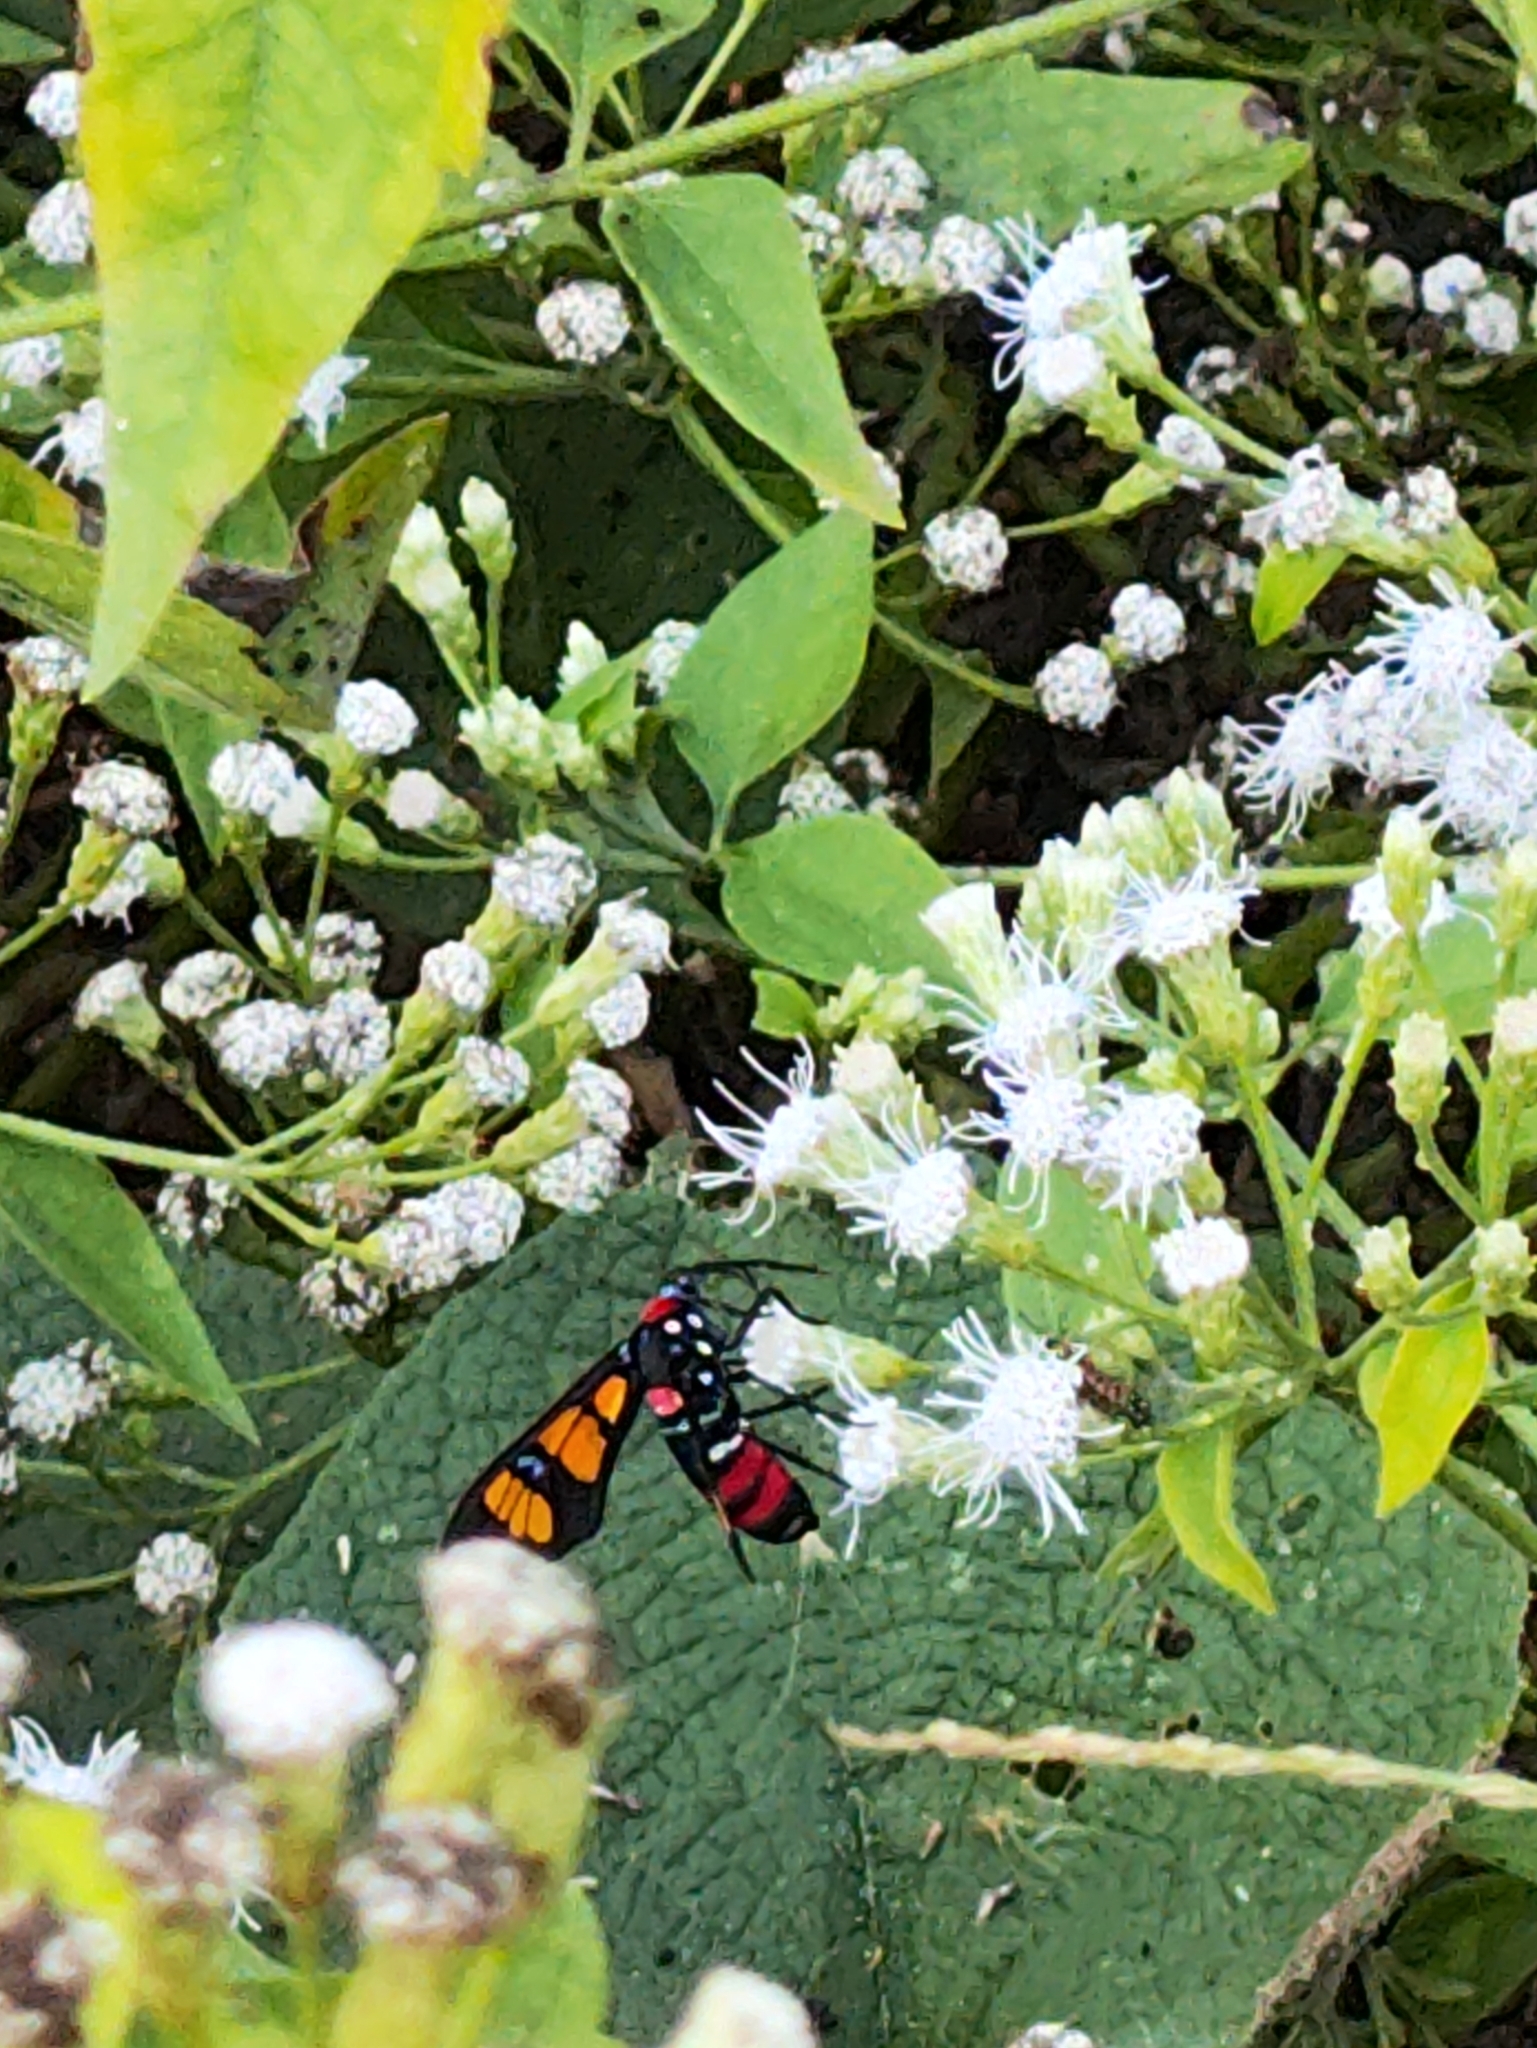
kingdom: Animalia
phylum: Arthropoda
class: Insecta
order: Lepidoptera
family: Erebidae
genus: Euchromia
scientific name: Euchromia polymena
